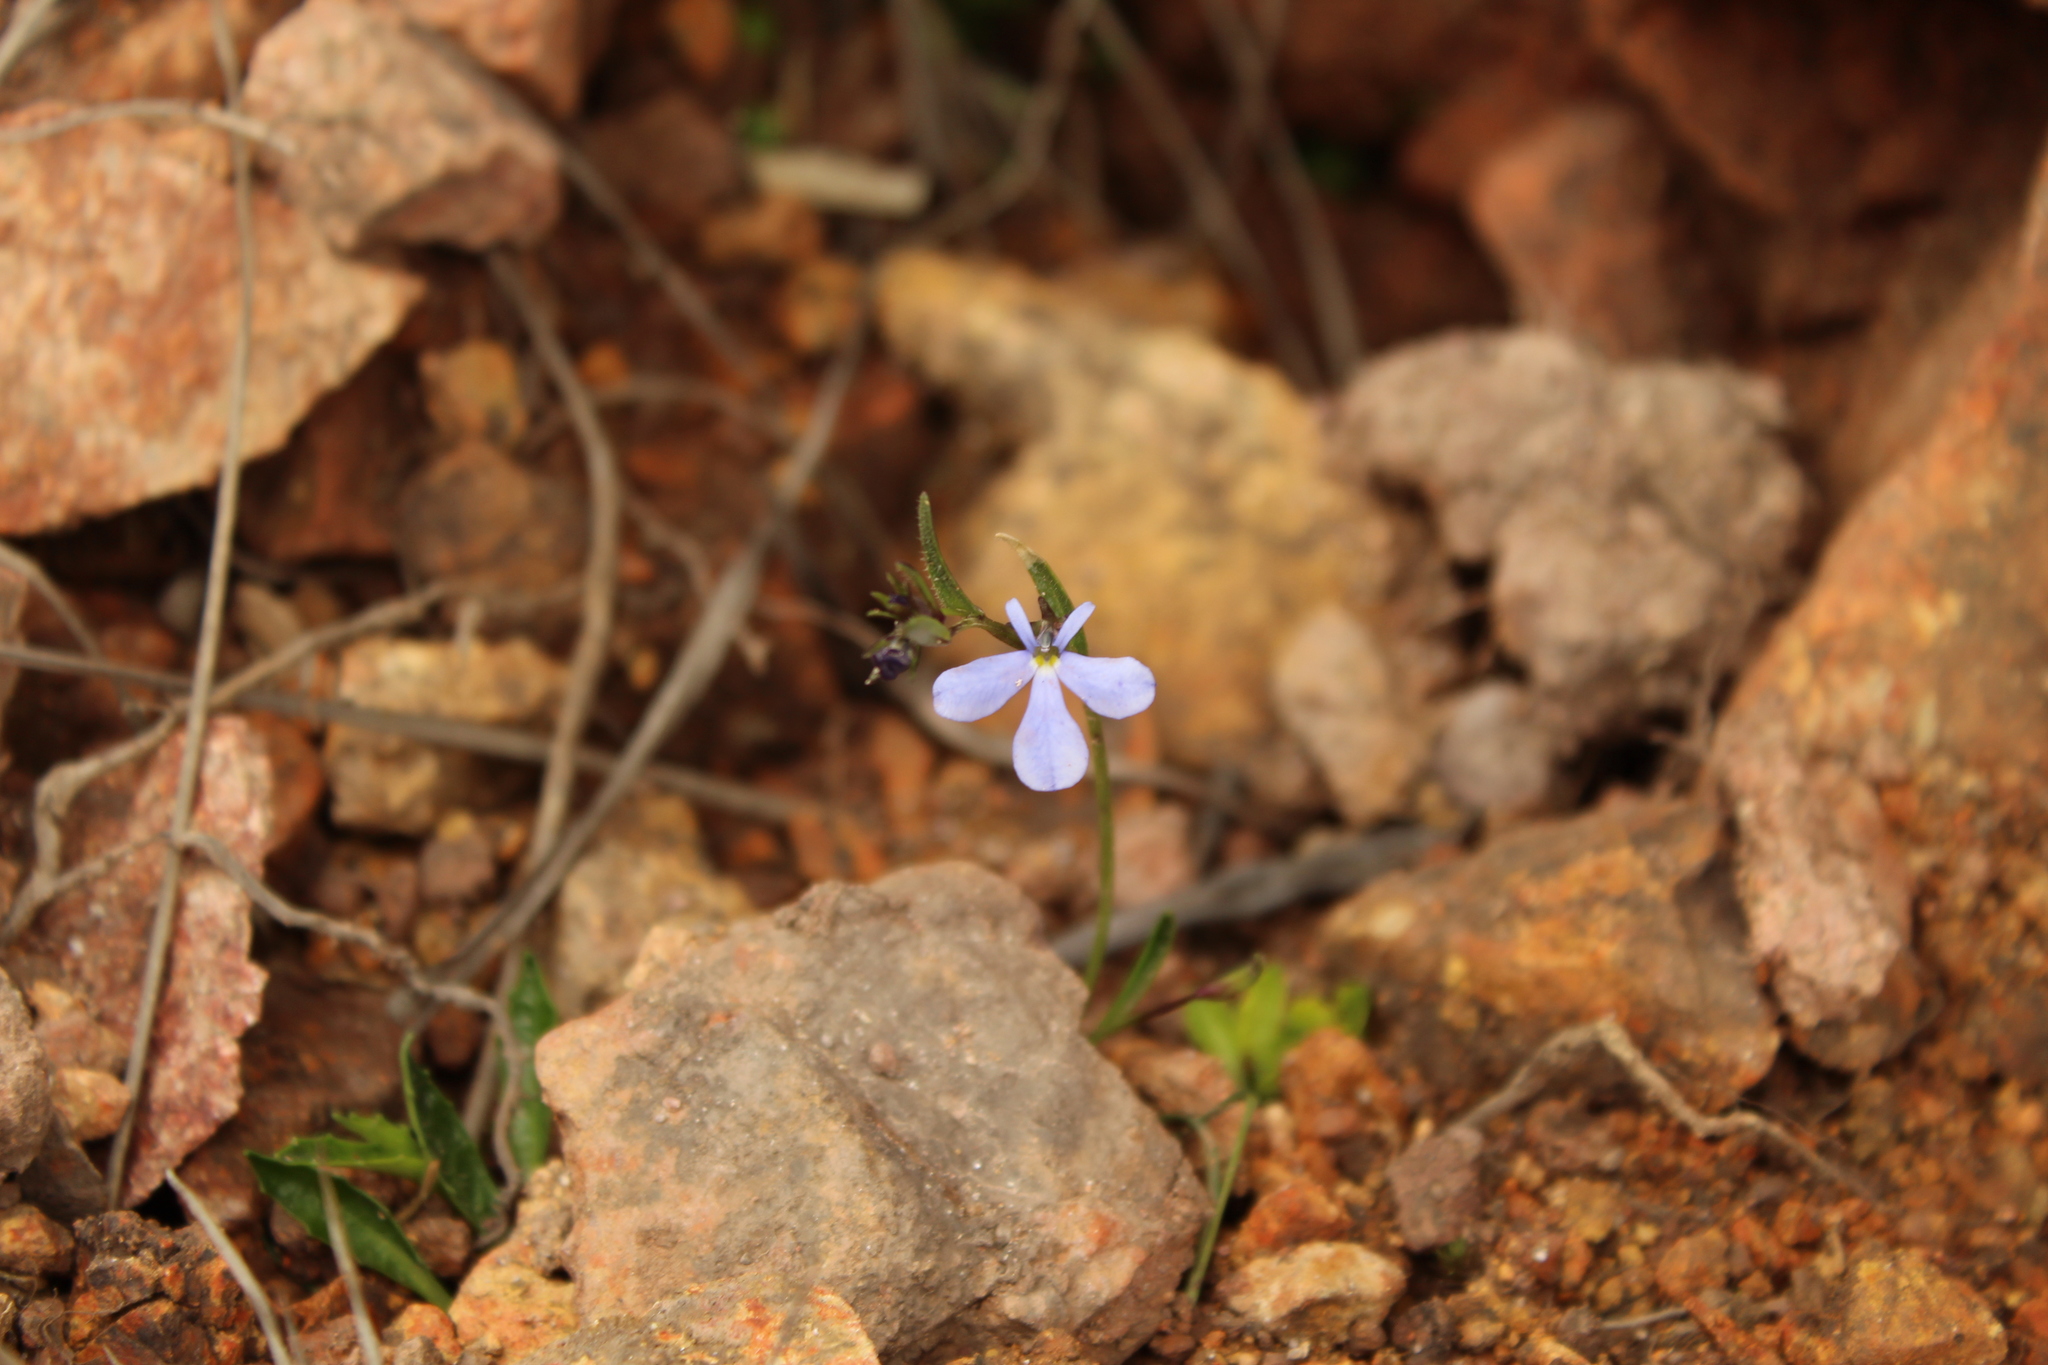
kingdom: Plantae
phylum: Tracheophyta
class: Magnoliopsida
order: Asterales
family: Campanulaceae
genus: Lobelia
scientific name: Lobelia tenera
